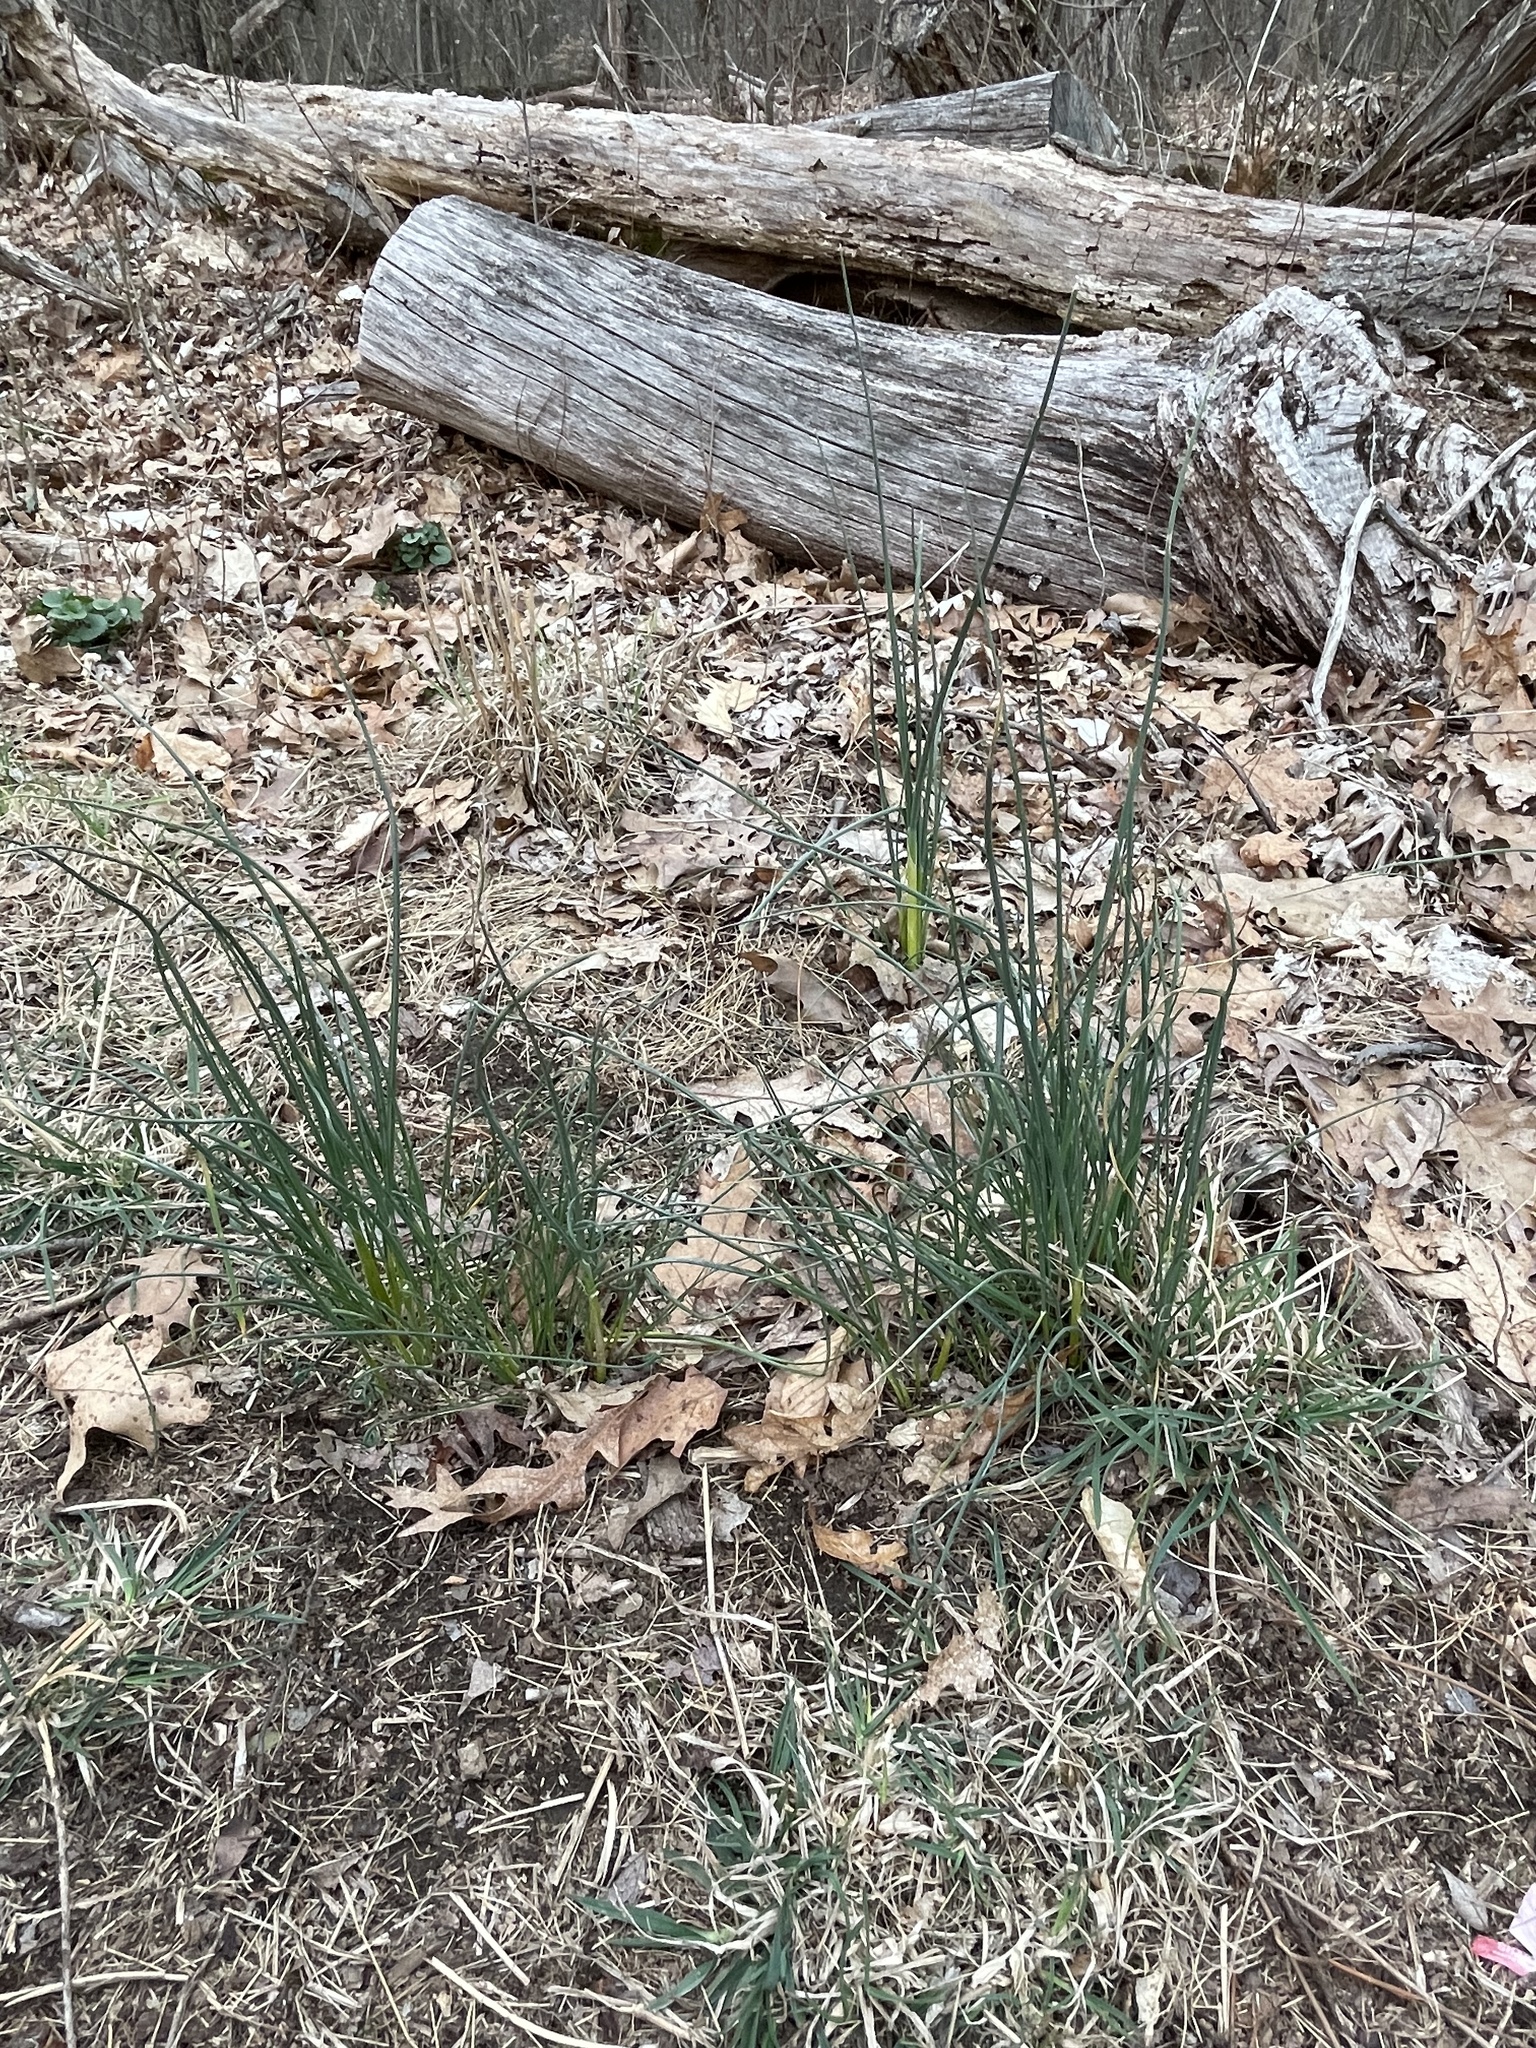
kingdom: Plantae
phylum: Tracheophyta
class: Liliopsida
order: Asparagales
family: Amaryllidaceae
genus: Allium
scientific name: Allium vineale
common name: Crow garlic
